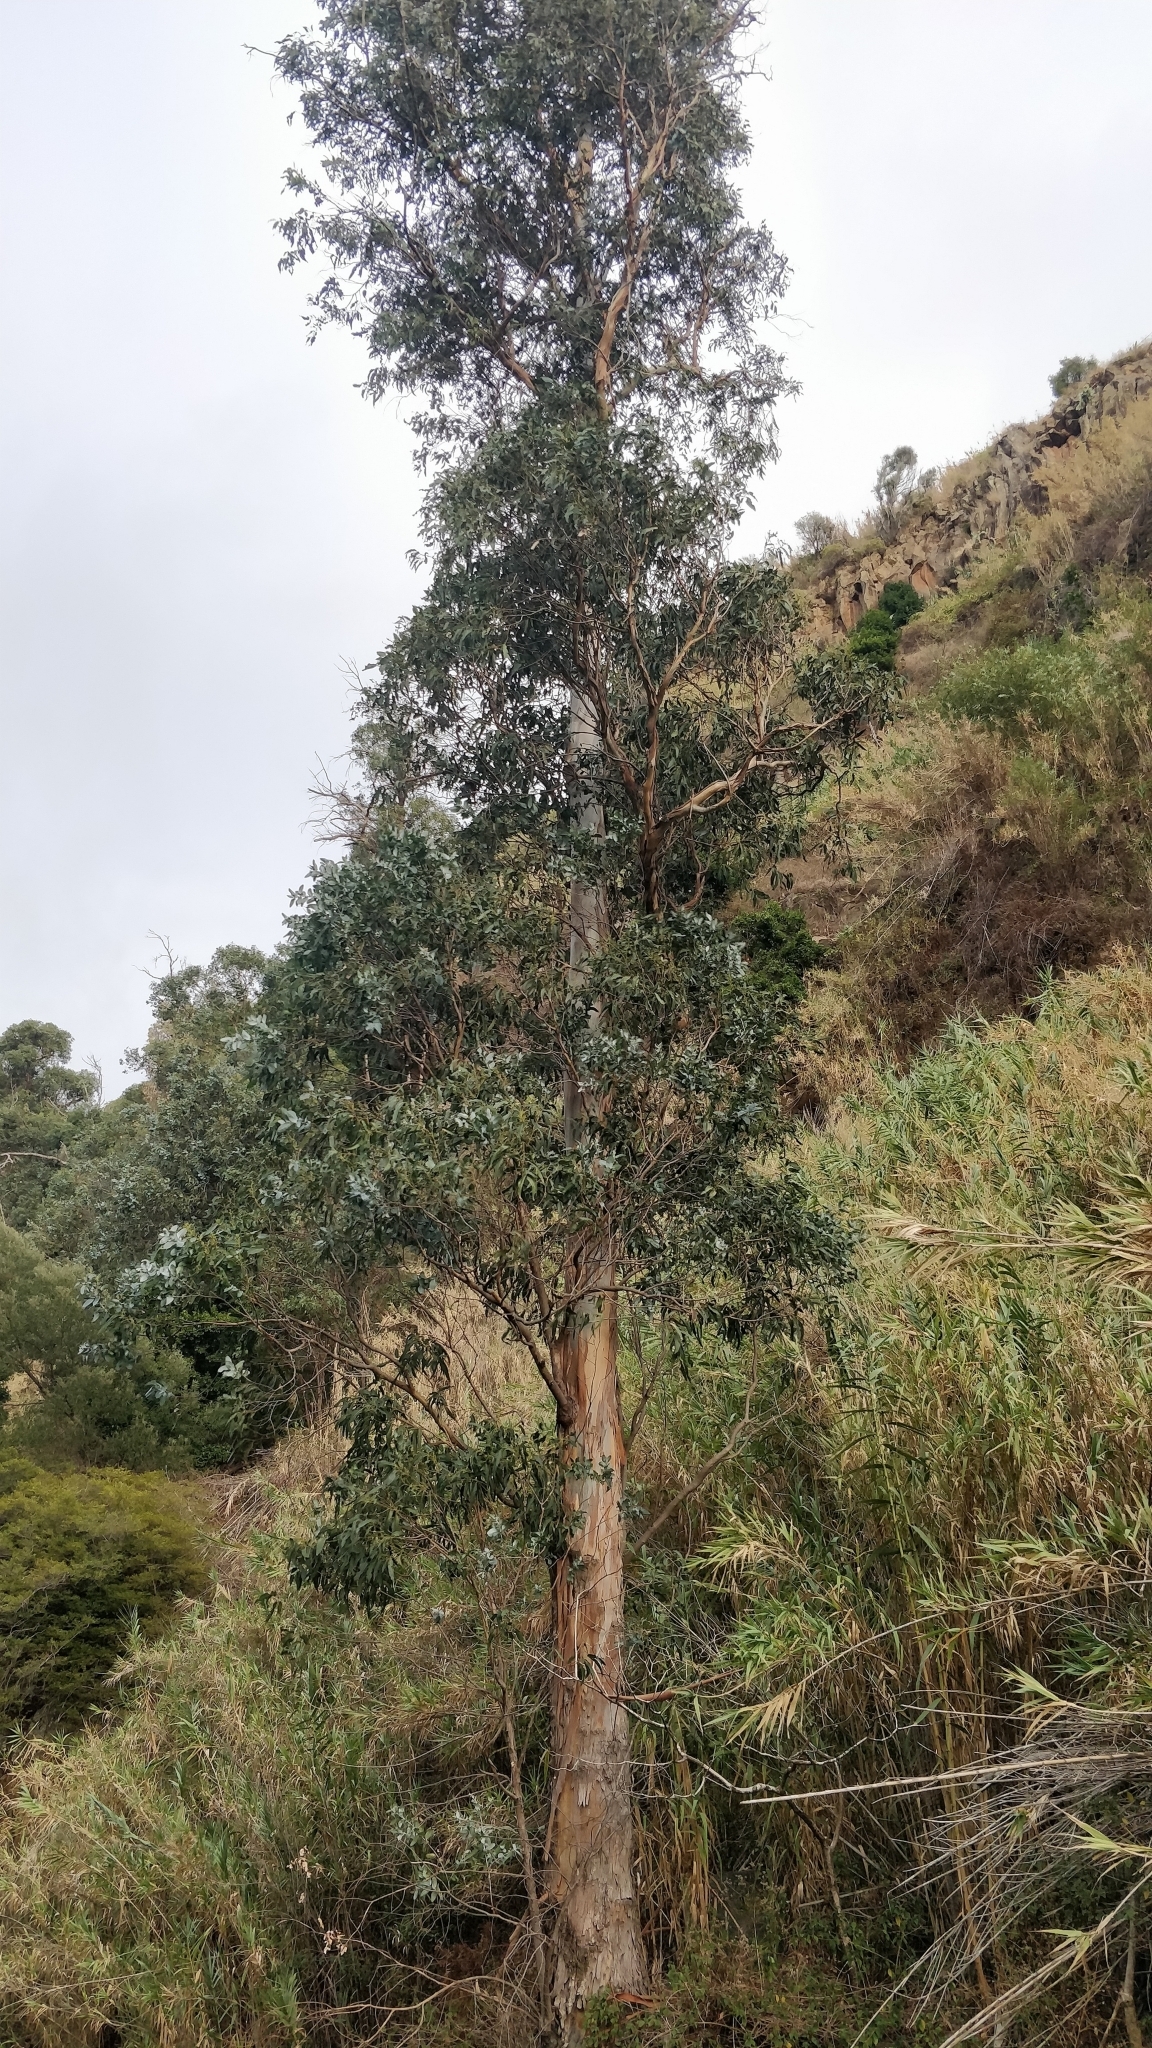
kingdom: Plantae
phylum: Tracheophyta
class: Magnoliopsida
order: Myrtales
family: Myrtaceae
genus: Eucalyptus
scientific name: Eucalyptus globulus
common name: Southern blue-gum
